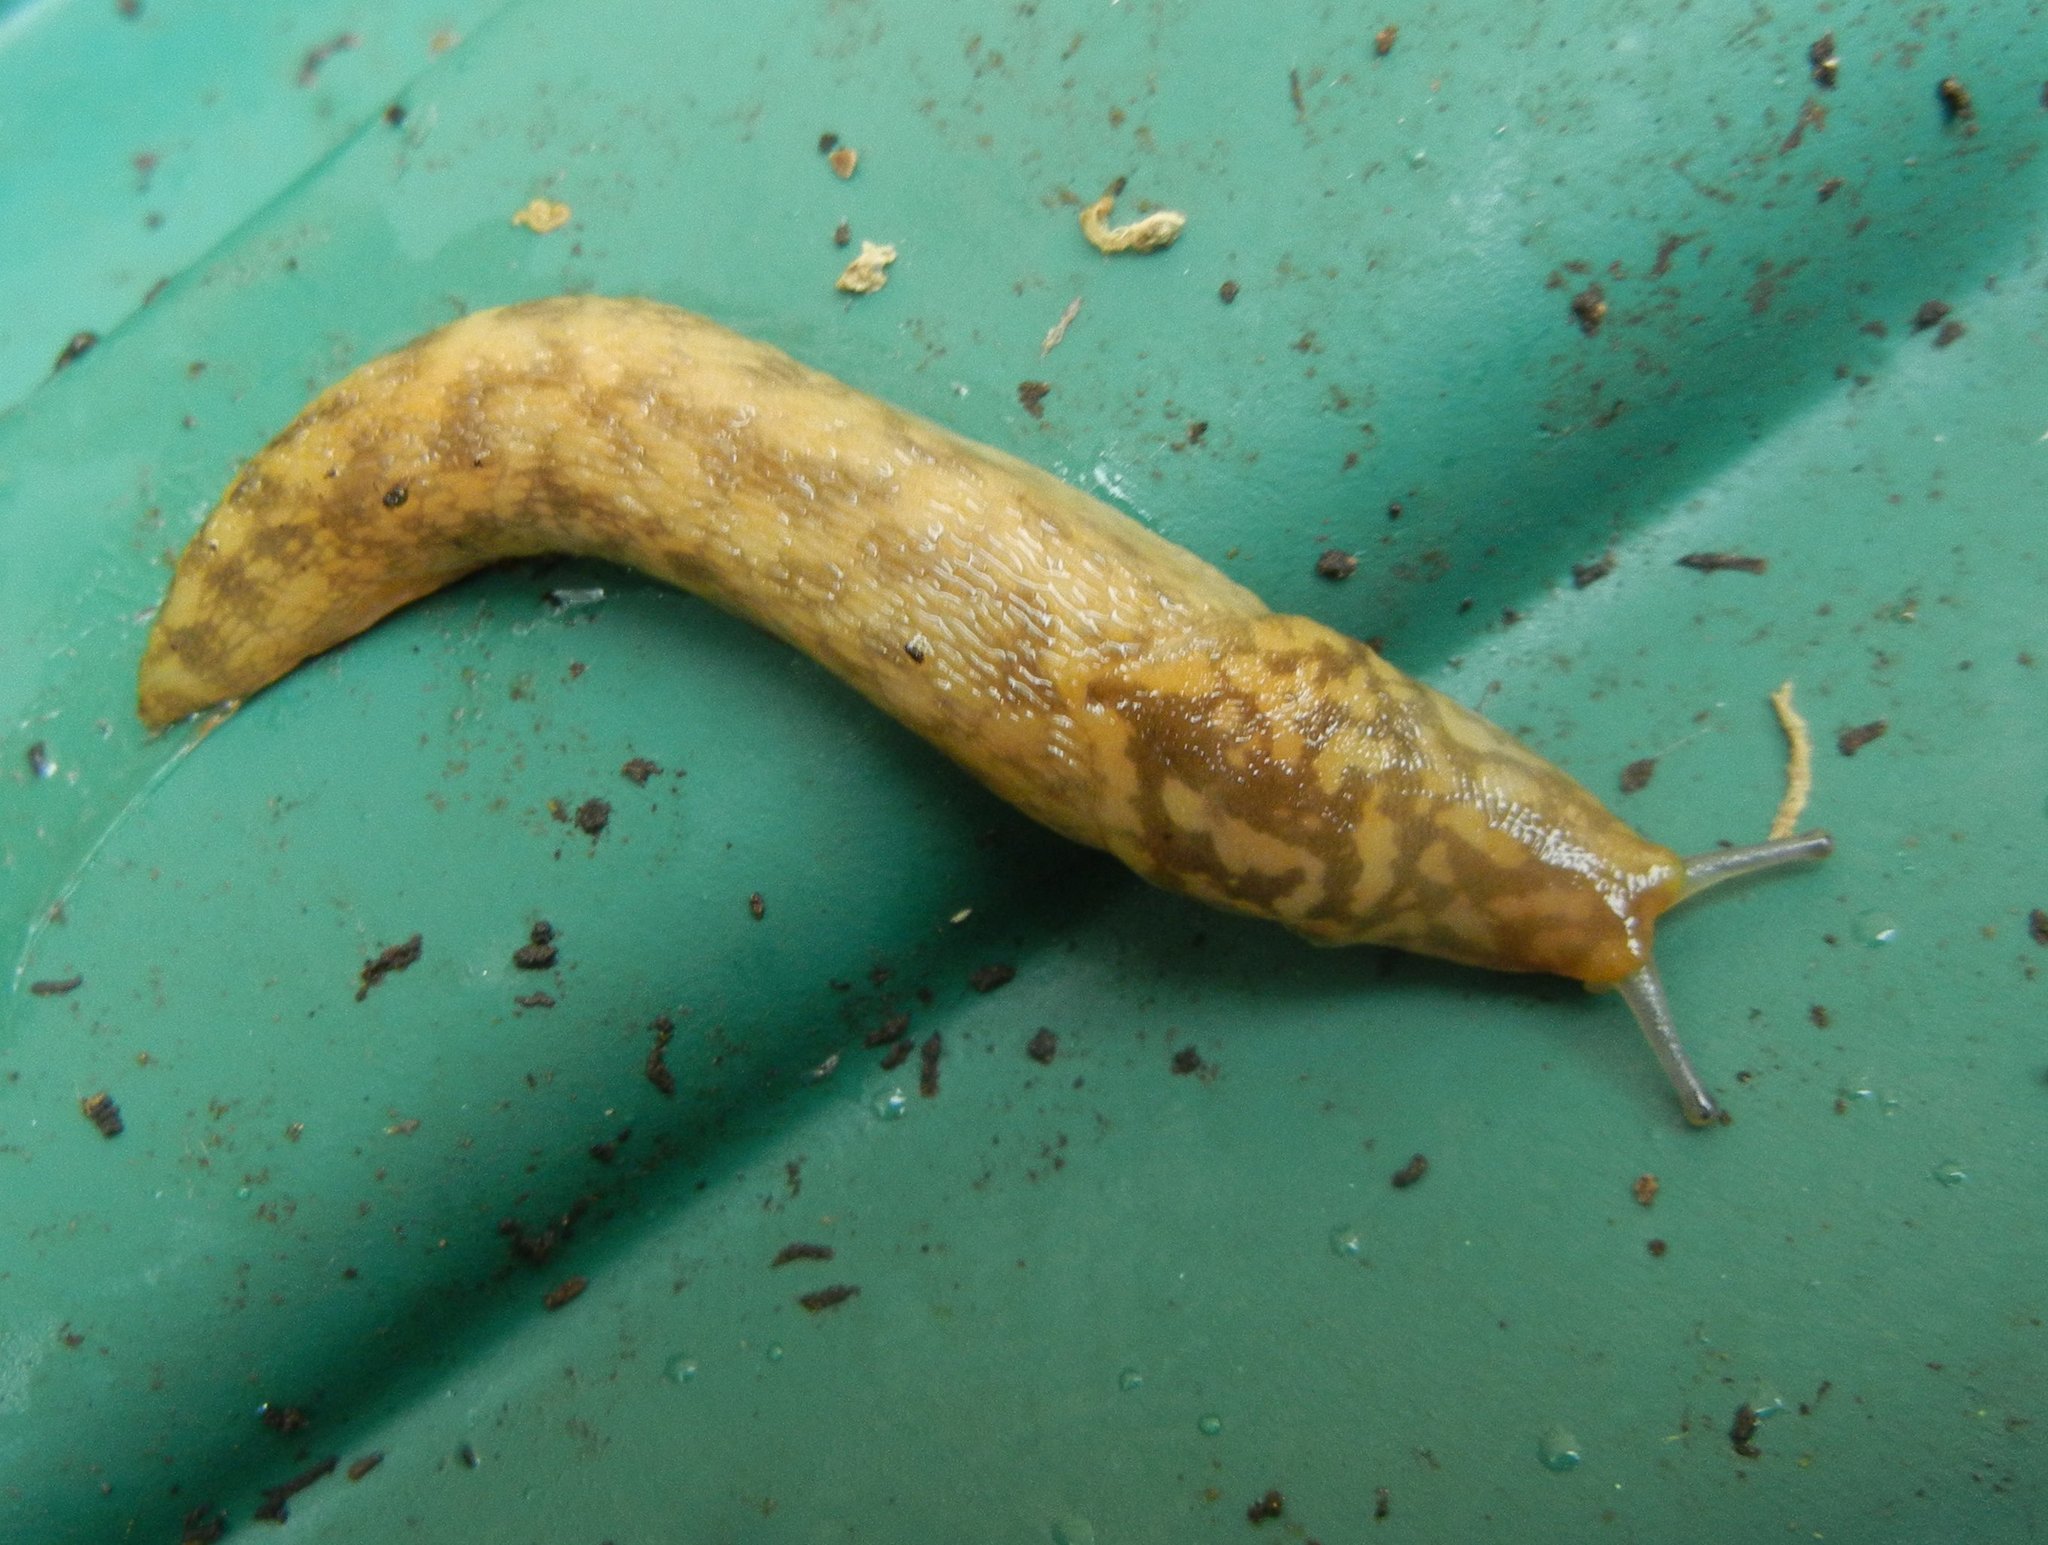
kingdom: Animalia
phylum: Mollusca
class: Gastropoda
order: Stylommatophora
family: Limacidae
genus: Limacus
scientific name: Limacus maculatus
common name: Irish yellow slug
